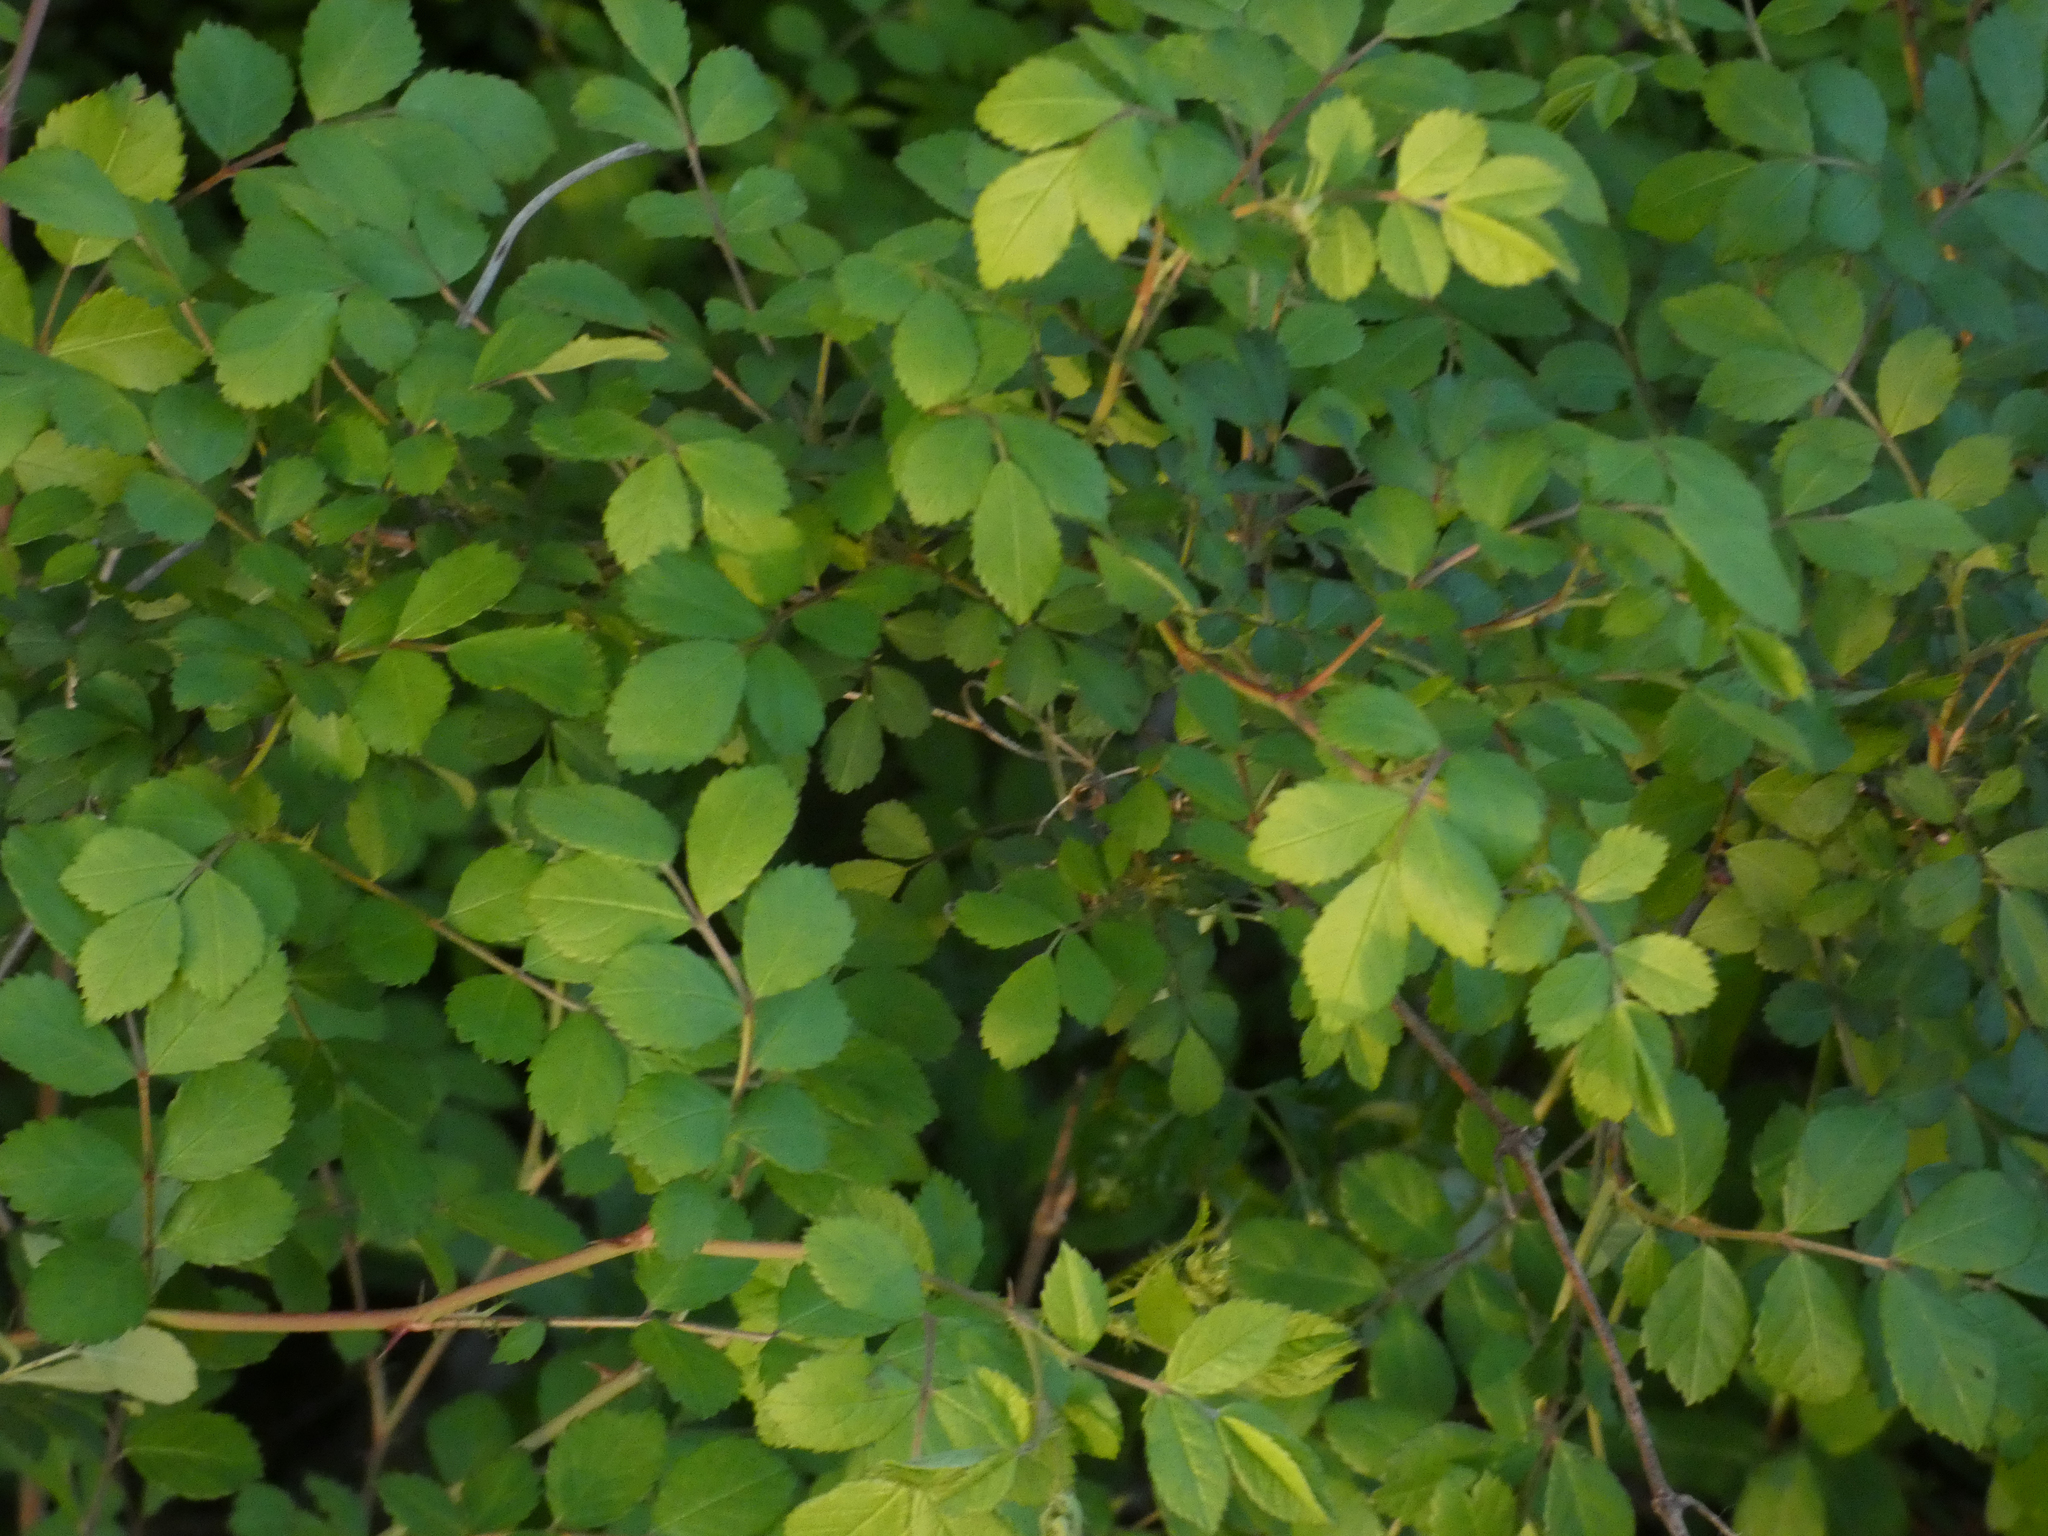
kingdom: Plantae
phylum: Tracheophyta
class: Magnoliopsida
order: Rosales
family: Rosaceae
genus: Rosa
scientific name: Rosa multiflora
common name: Multiflora rose
